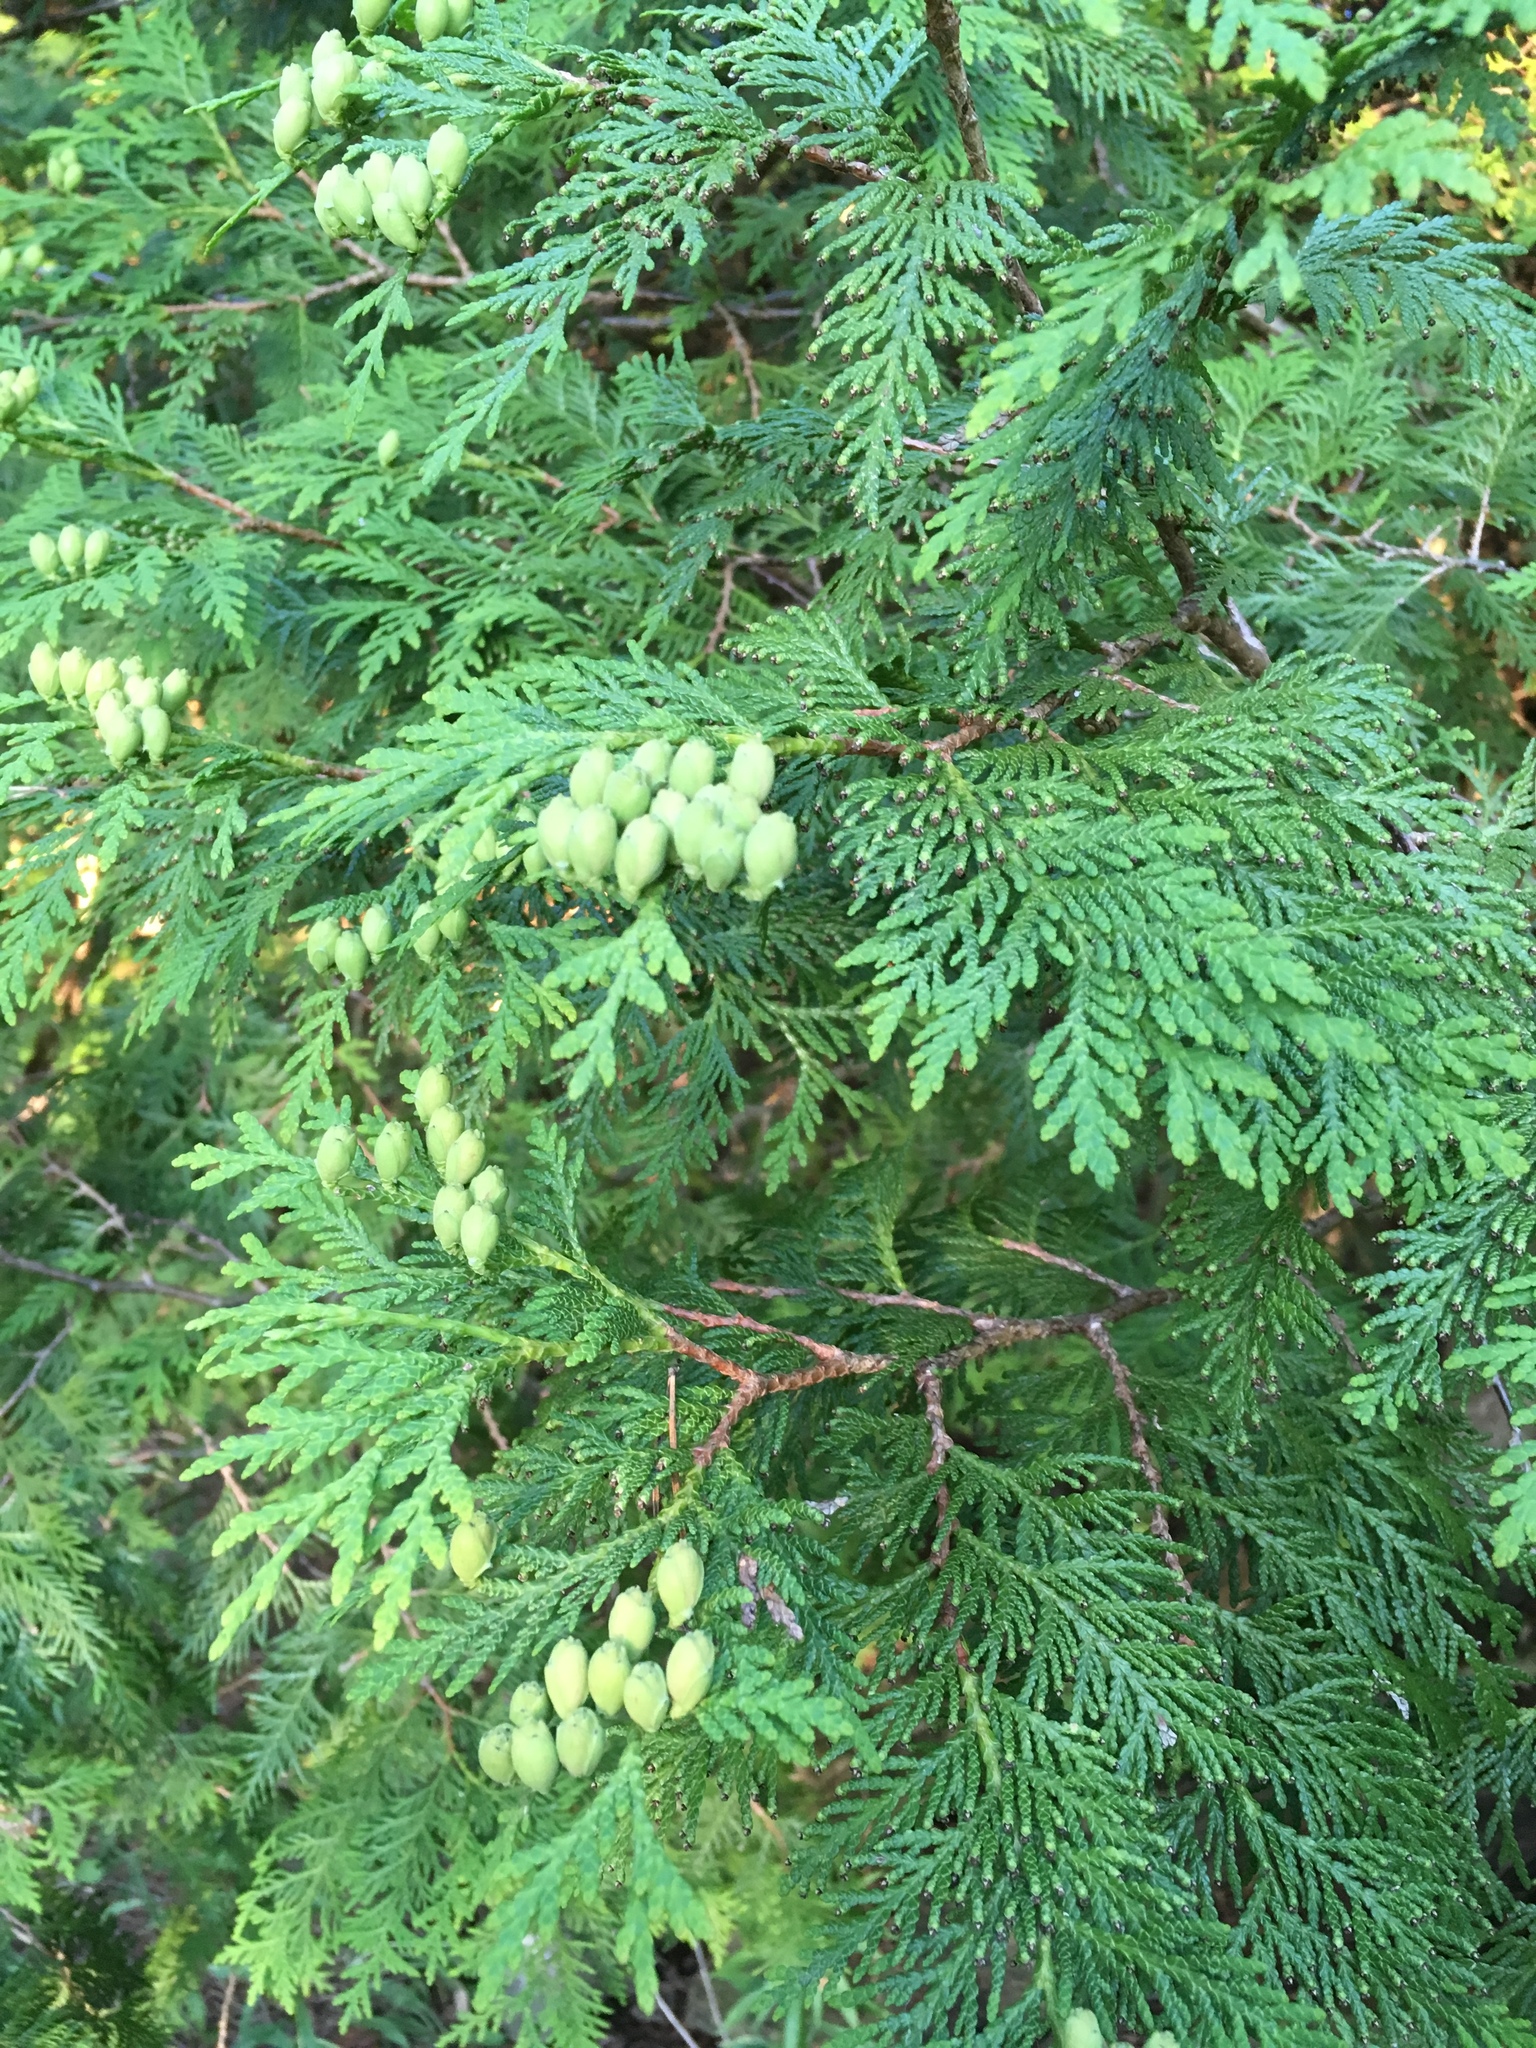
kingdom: Plantae
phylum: Tracheophyta
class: Pinopsida
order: Pinales
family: Cupressaceae
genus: Thuja
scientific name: Thuja occidentalis
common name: Northern white-cedar
